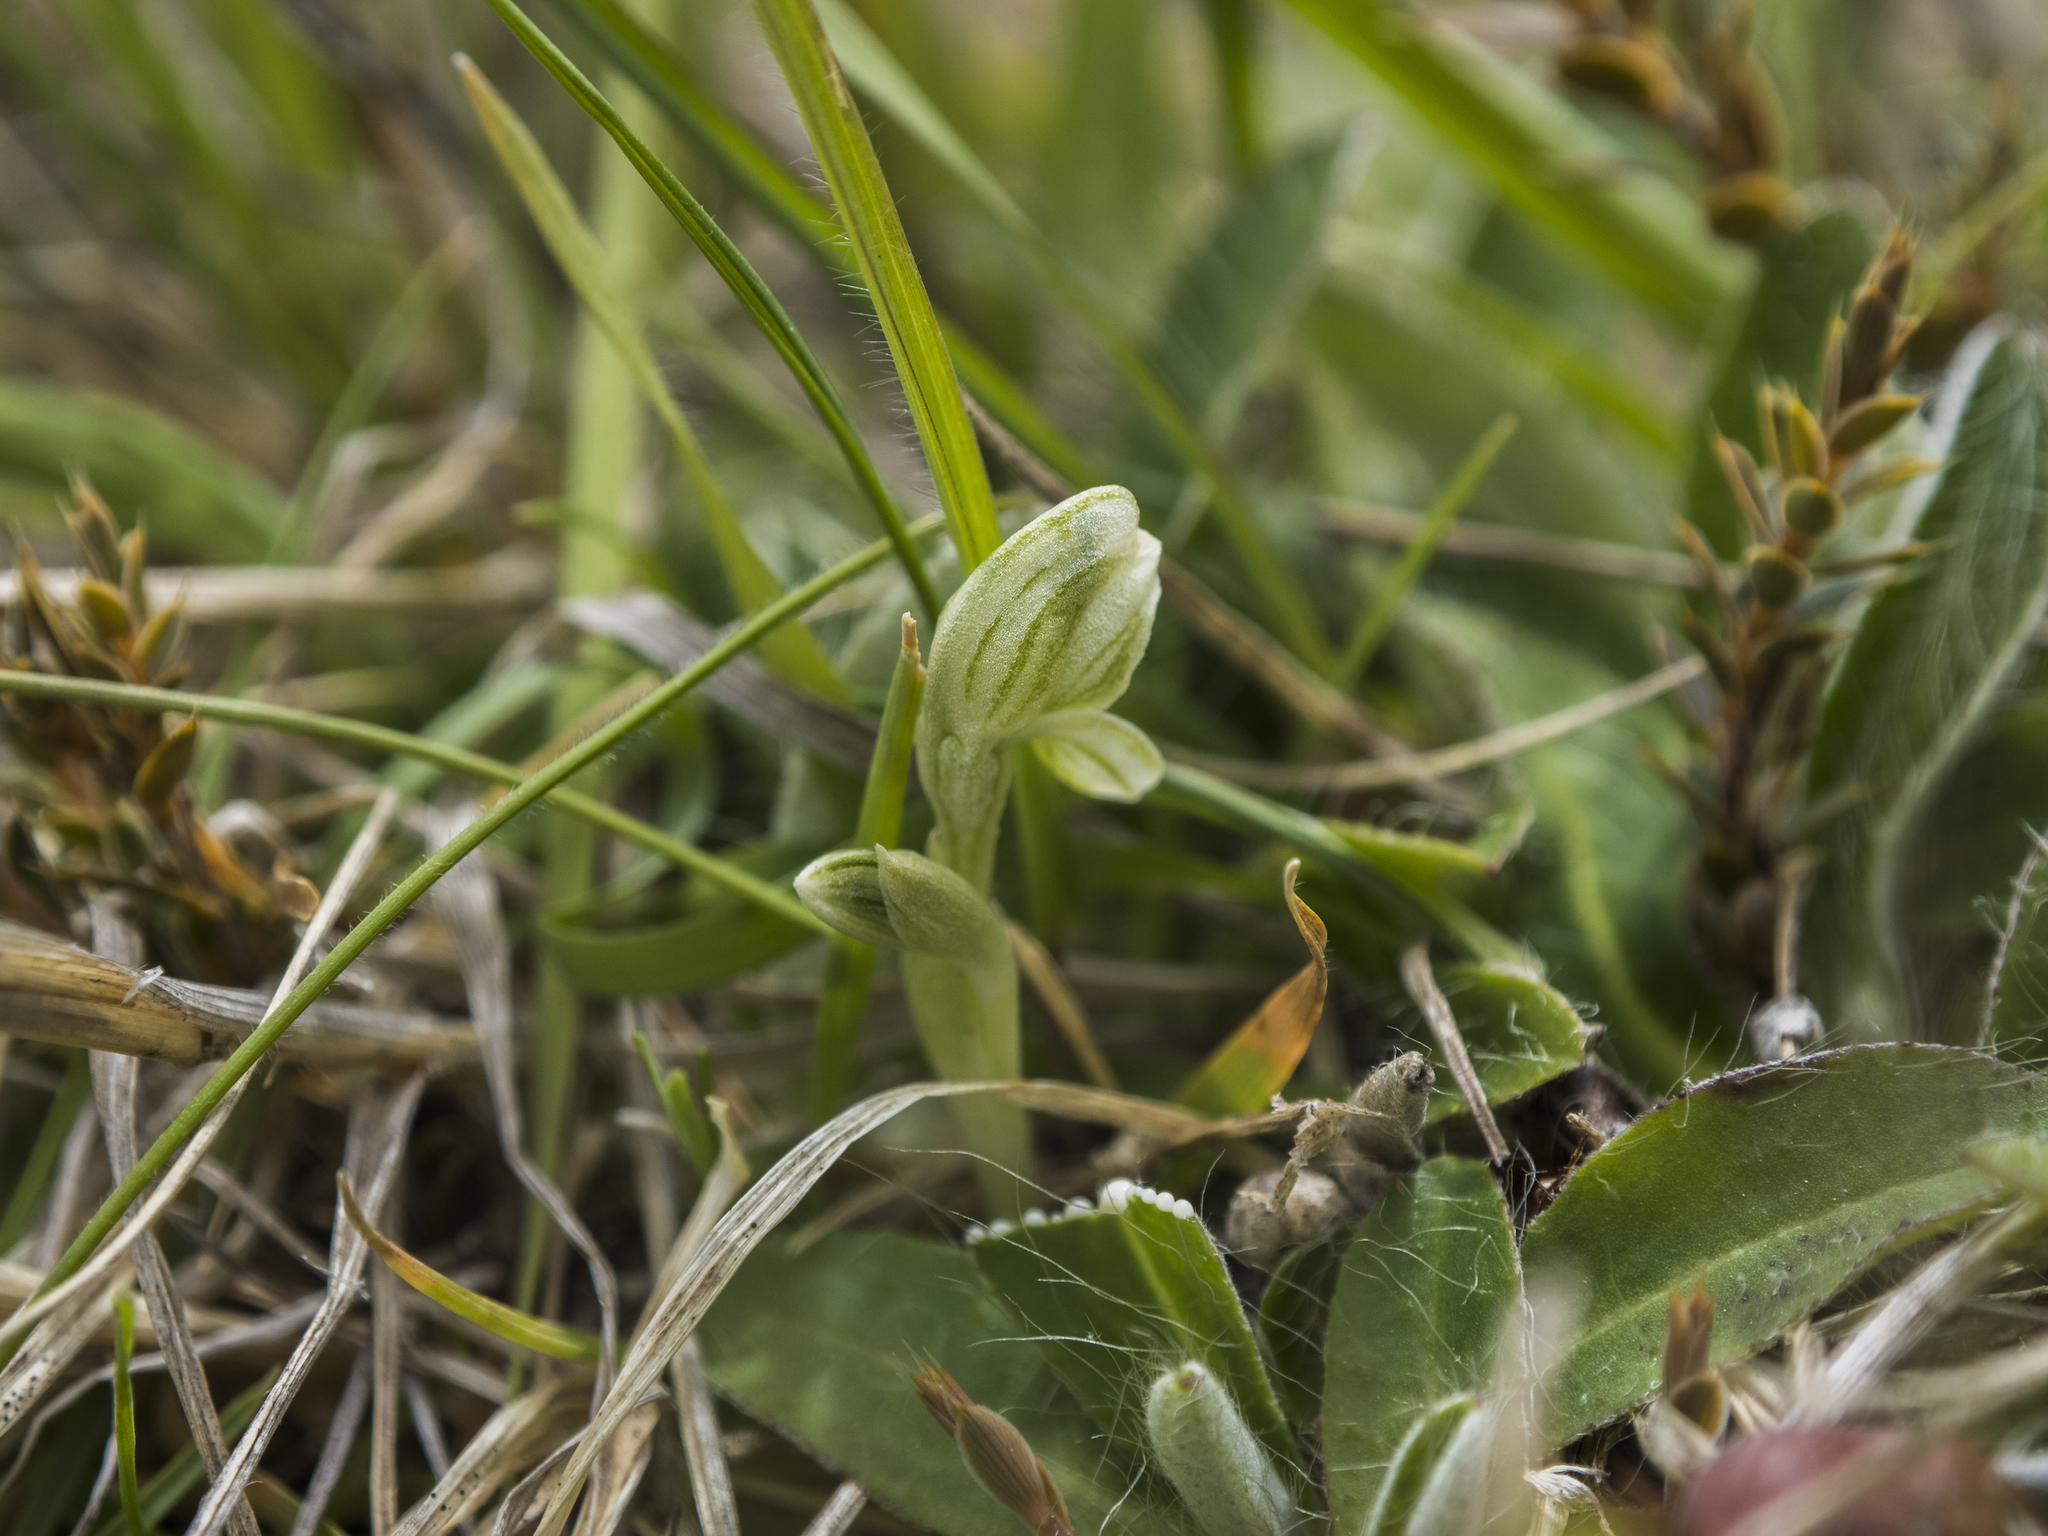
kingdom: Plantae
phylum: Tracheophyta
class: Liliopsida
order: Asparagales
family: Orchidaceae
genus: Pterostylis
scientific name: Pterostylis tanypoda
